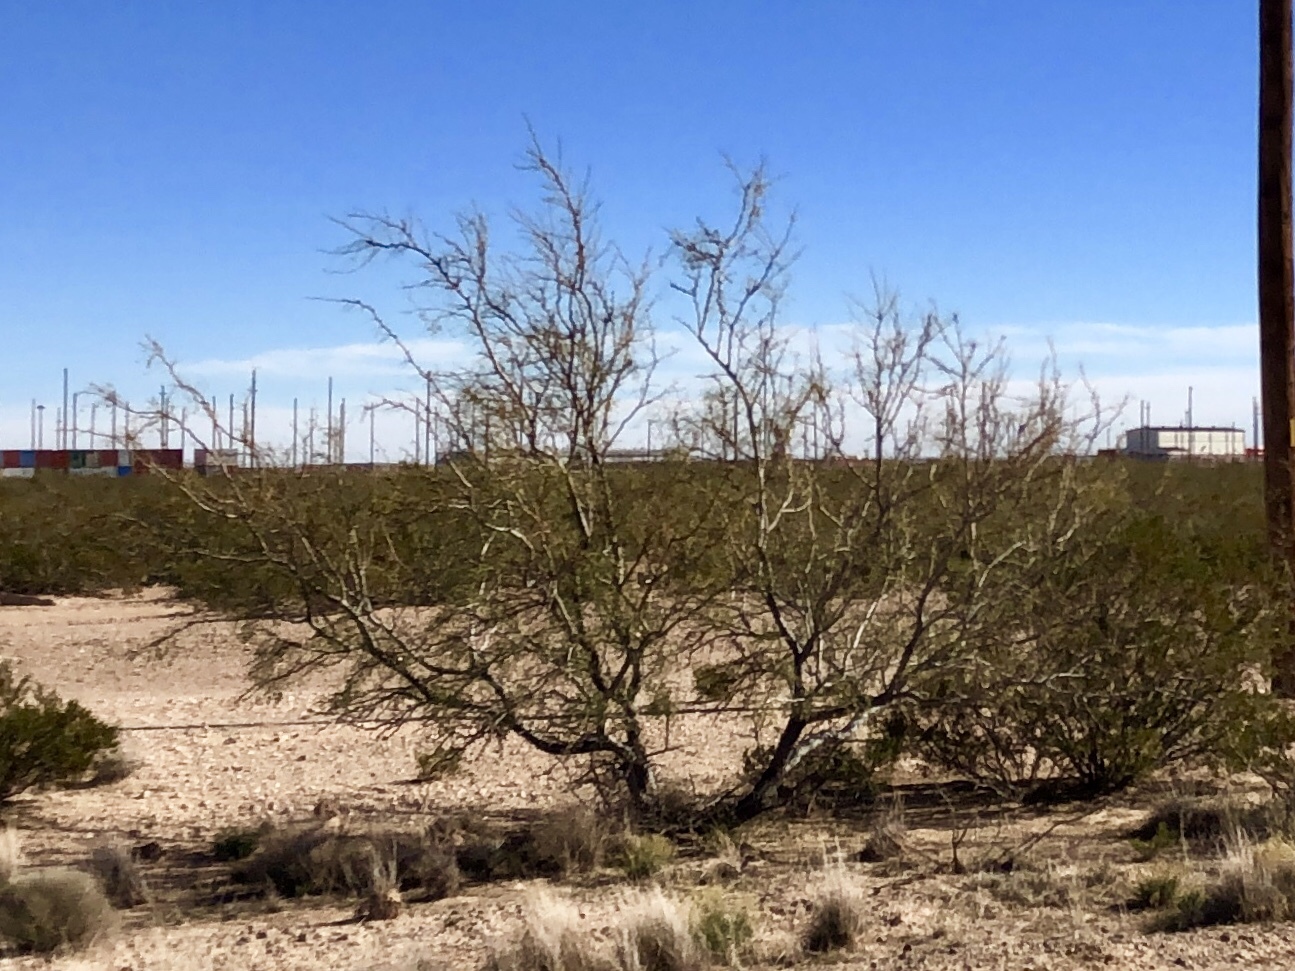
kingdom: Plantae
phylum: Tracheophyta
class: Magnoliopsida
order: Fabales
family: Fabaceae
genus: Parkinsonia
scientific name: Parkinsonia aculeata
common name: Jerusalem thorn
